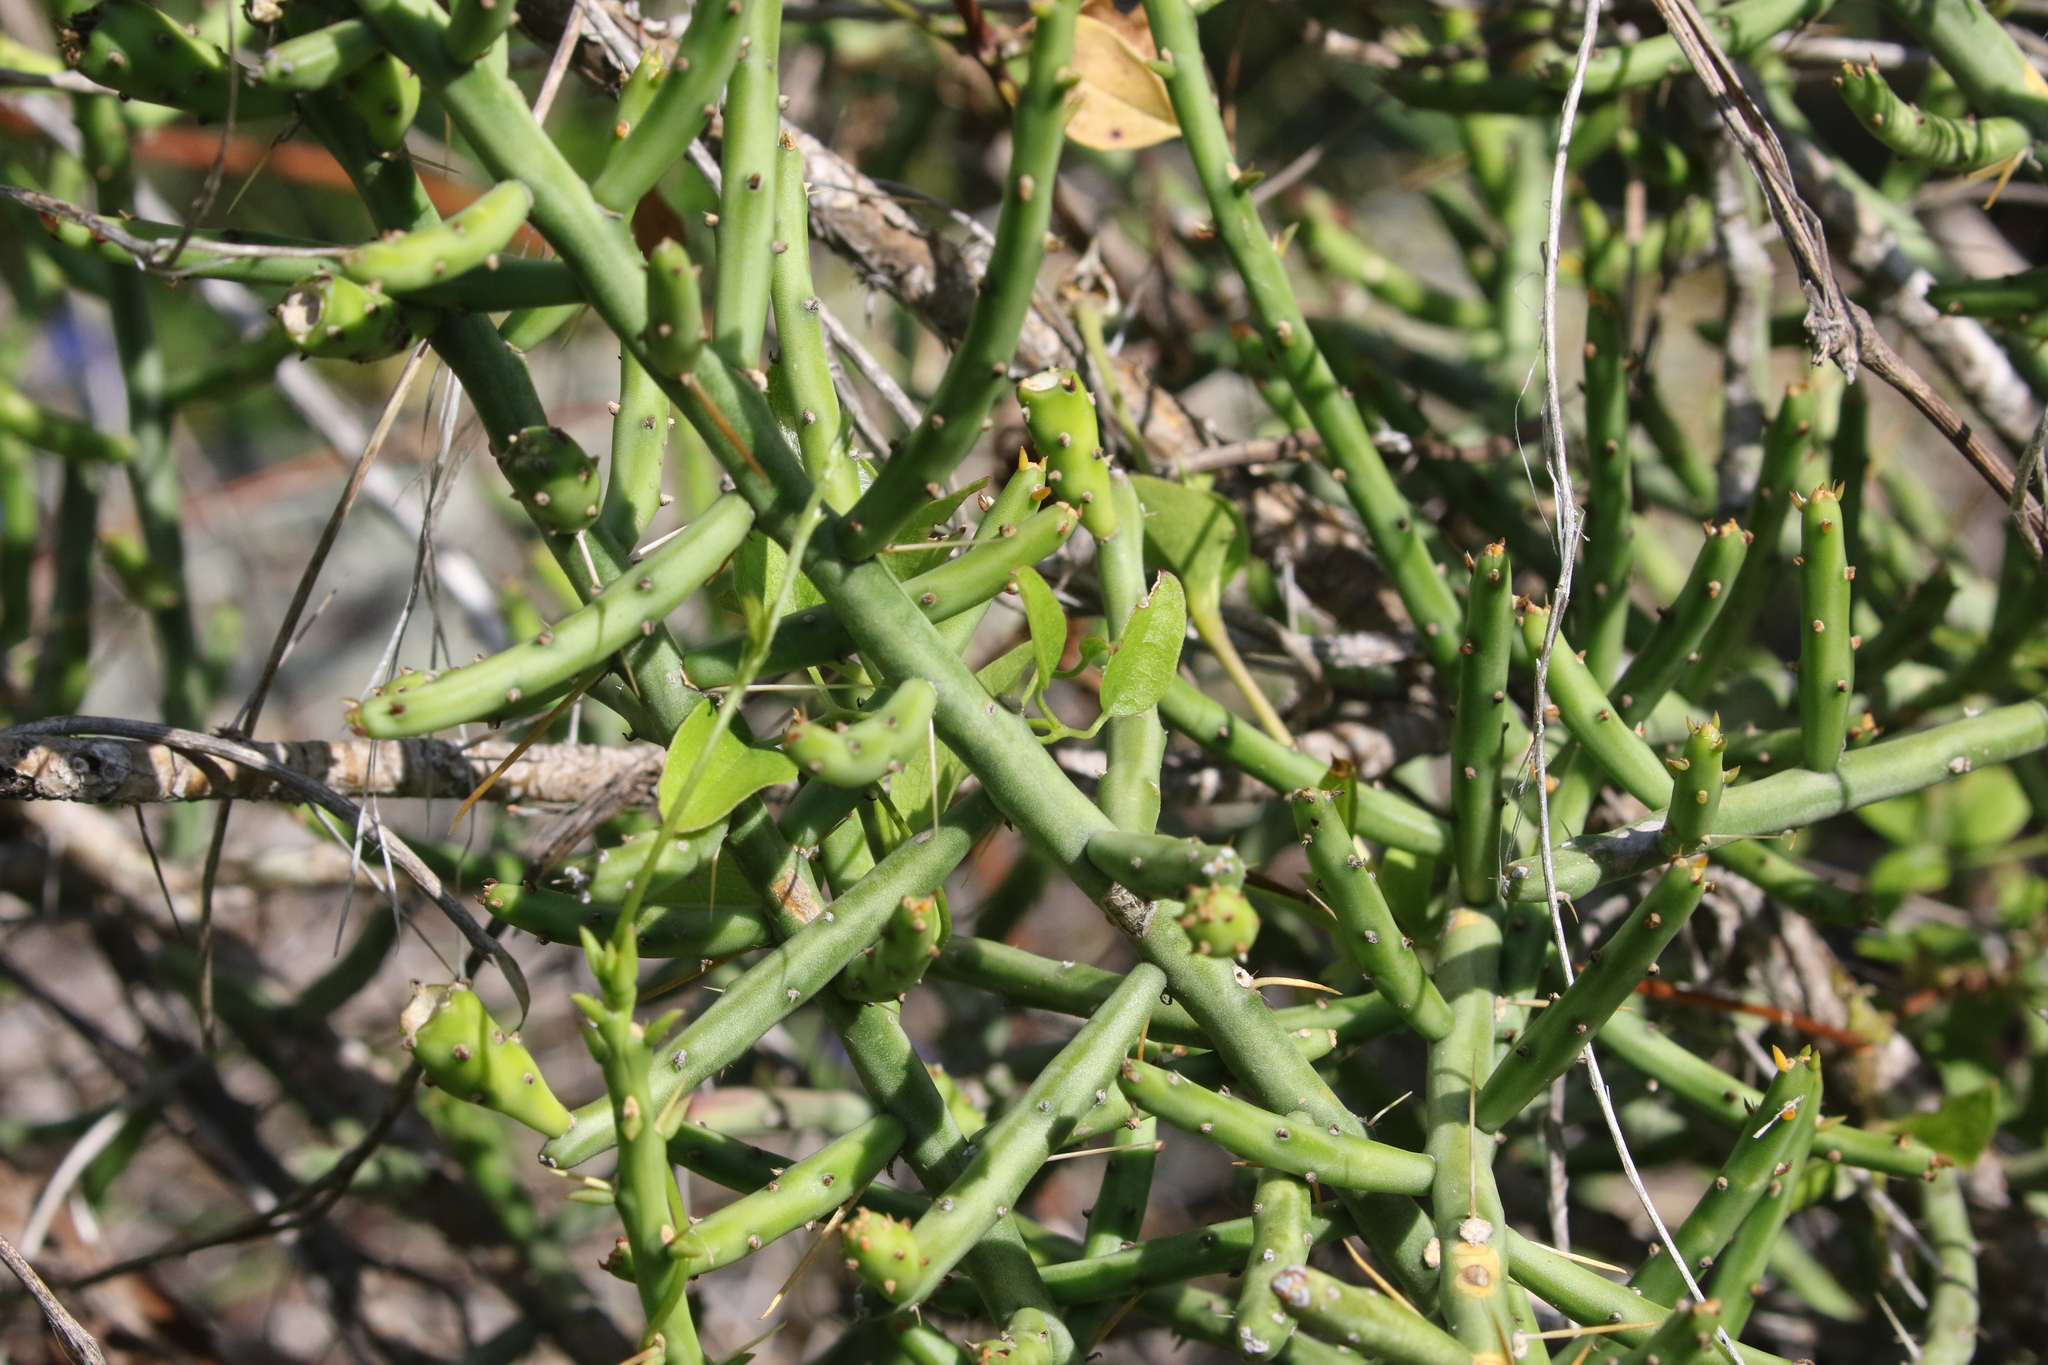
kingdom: Plantae
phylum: Tracheophyta
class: Magnoliopsida
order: Caryophyllales
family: Cactaceae
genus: Cylindropuntia
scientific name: Cylindropuntia leptocaulis
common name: Christmas cactus
